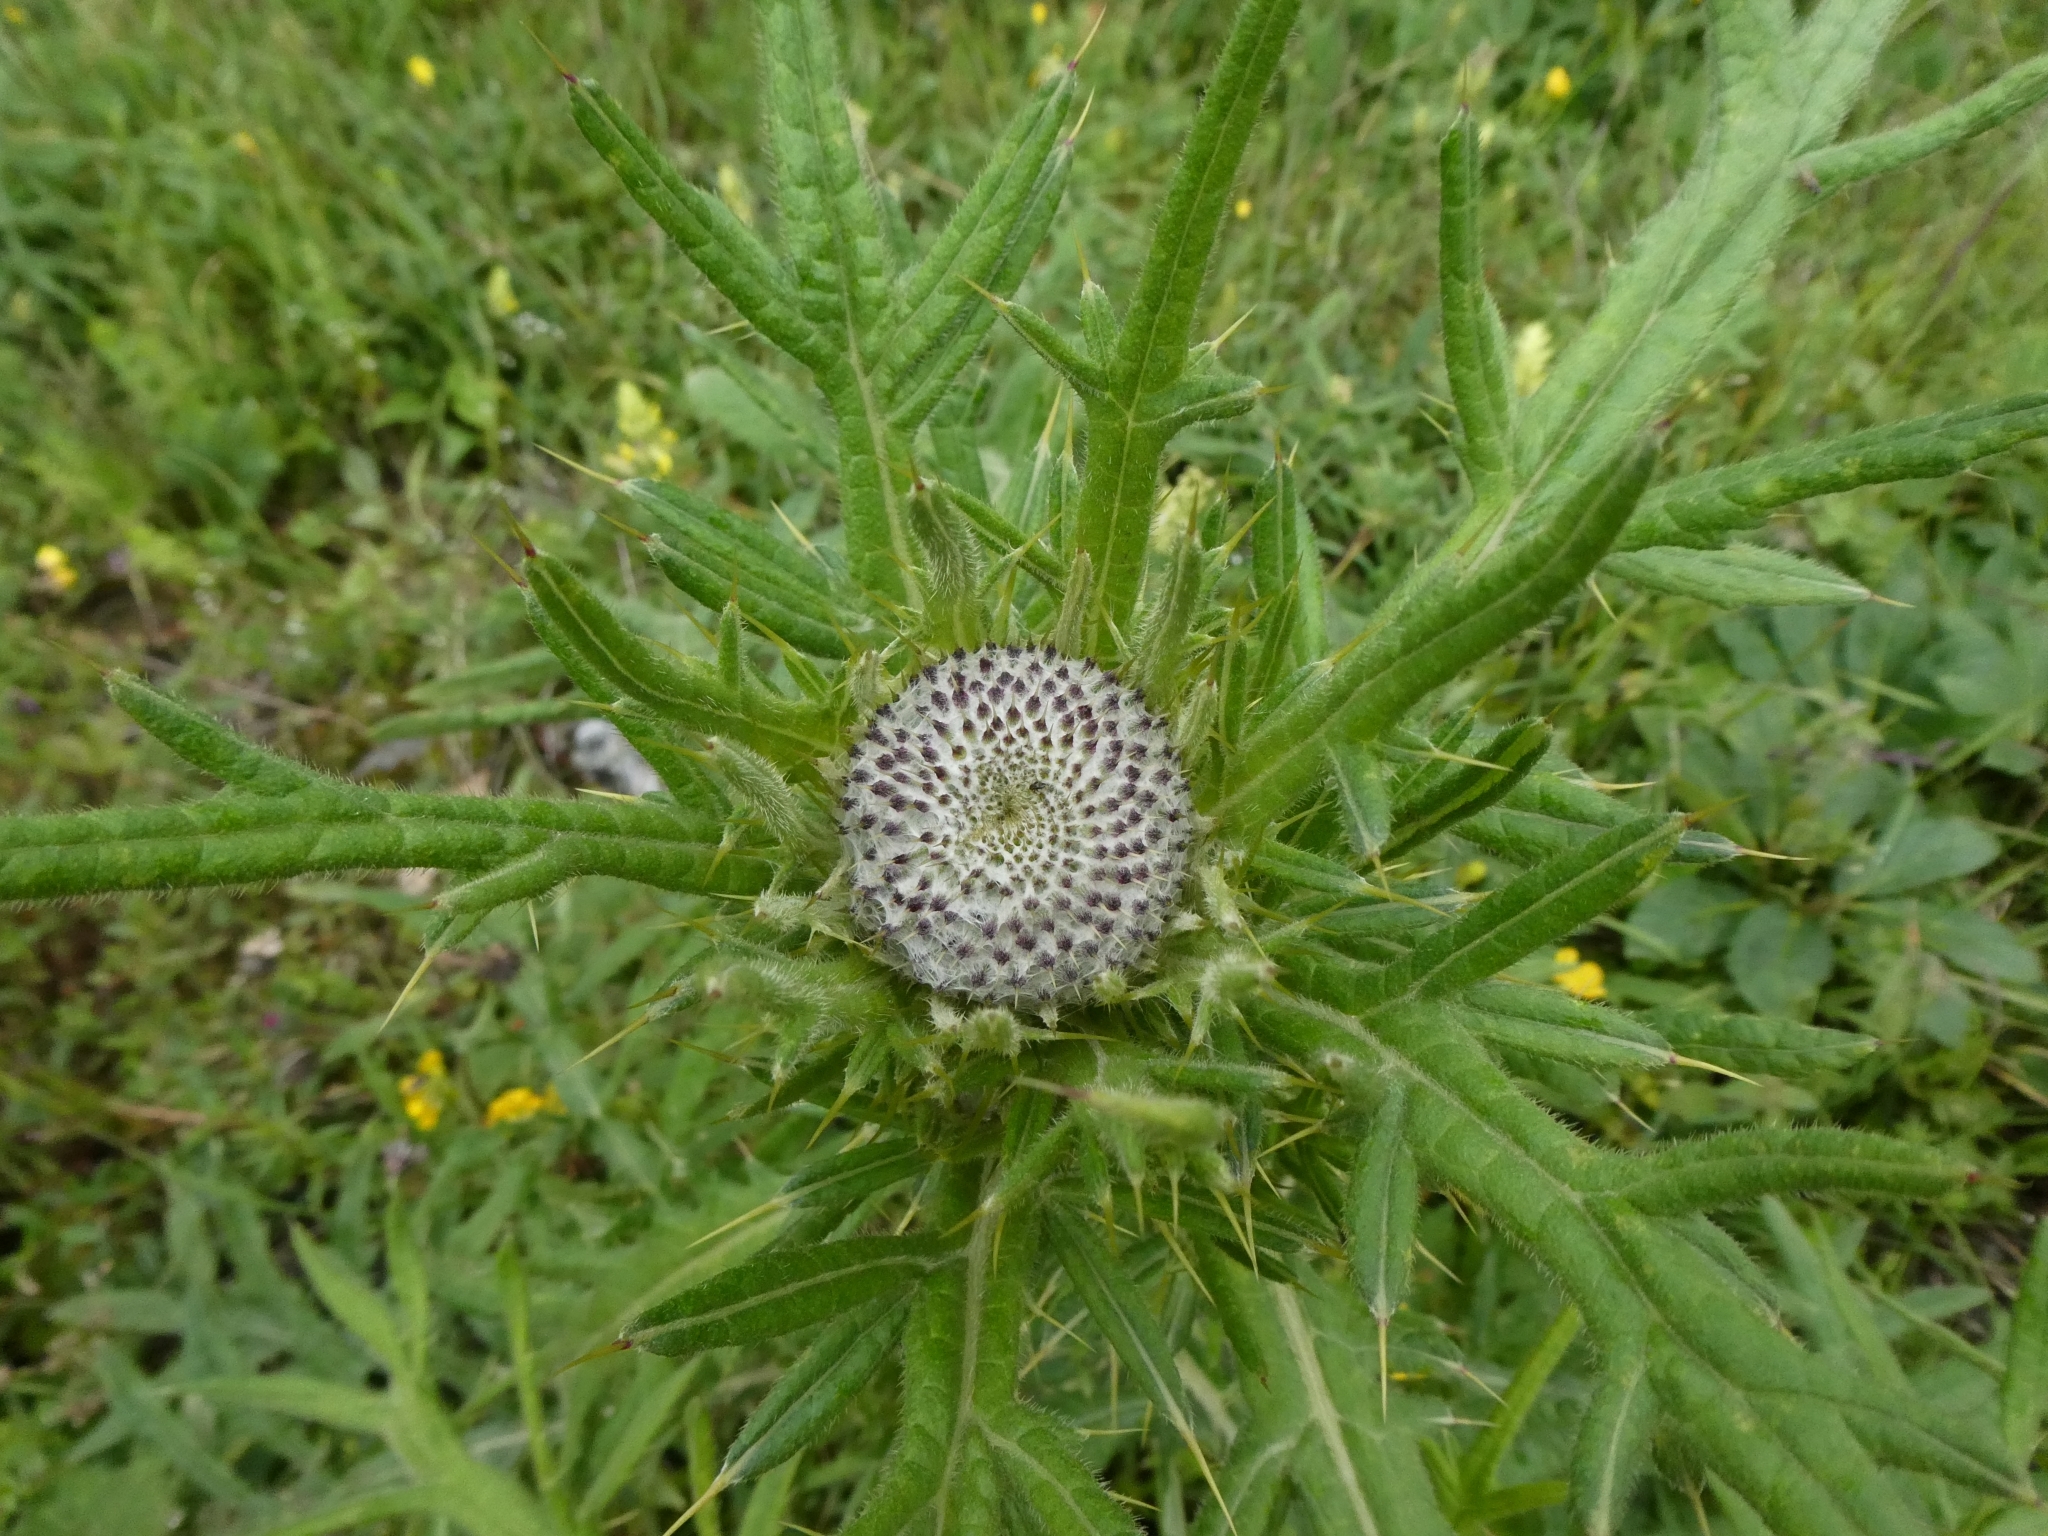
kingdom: Plantae
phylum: Tracheophyta
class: Magnoliopsida
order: Asterales
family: Asteraceae
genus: Lophiolepis
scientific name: Lophiolepis eriophora
